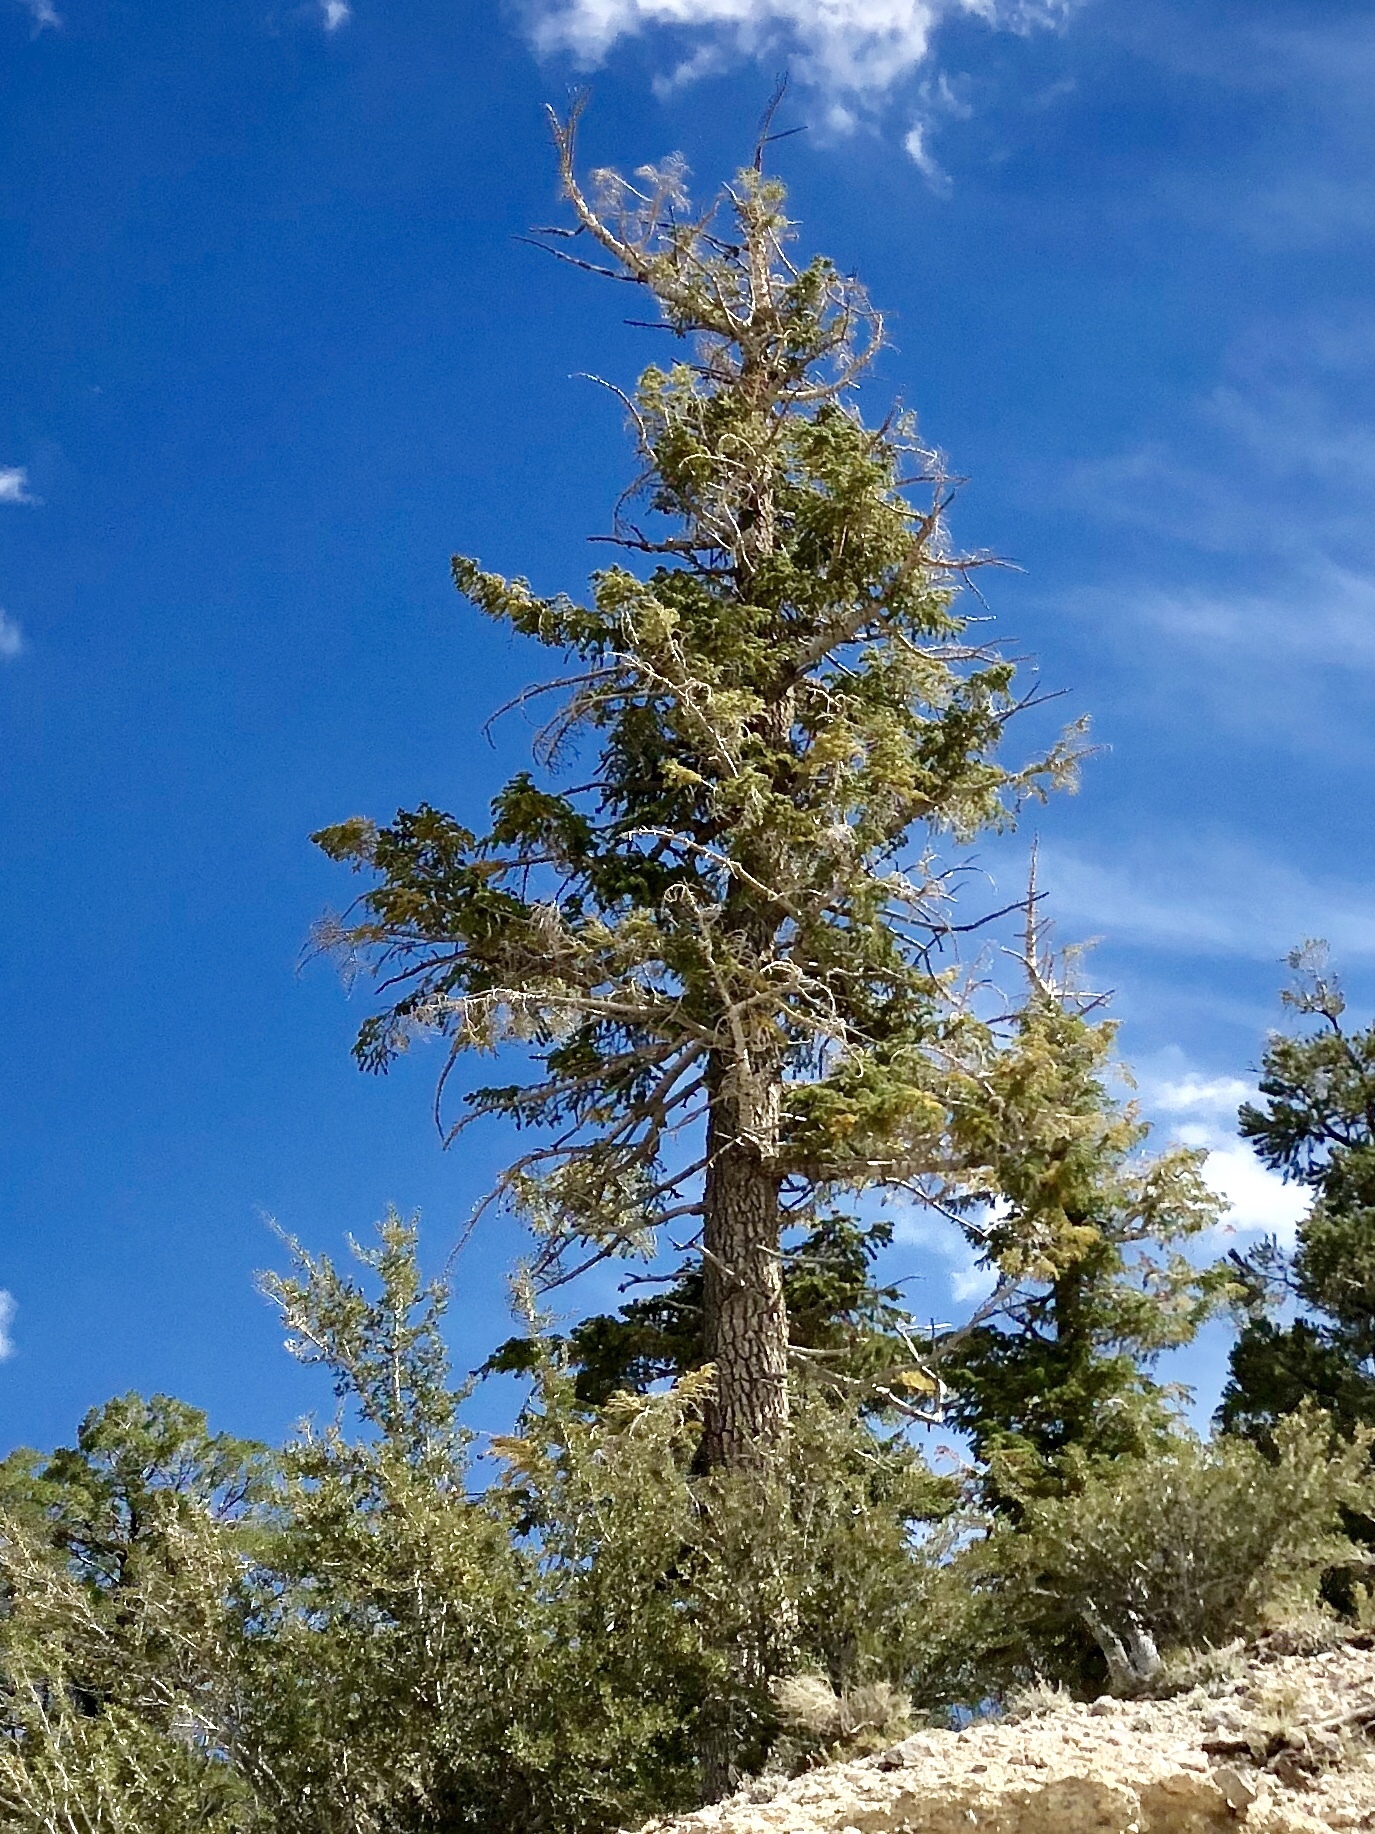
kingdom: Plantae
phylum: Tracheophyta
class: Pinopsida
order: Pinales
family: Pinaceae
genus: Abies
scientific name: Abies concolor
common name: Colorado fir
